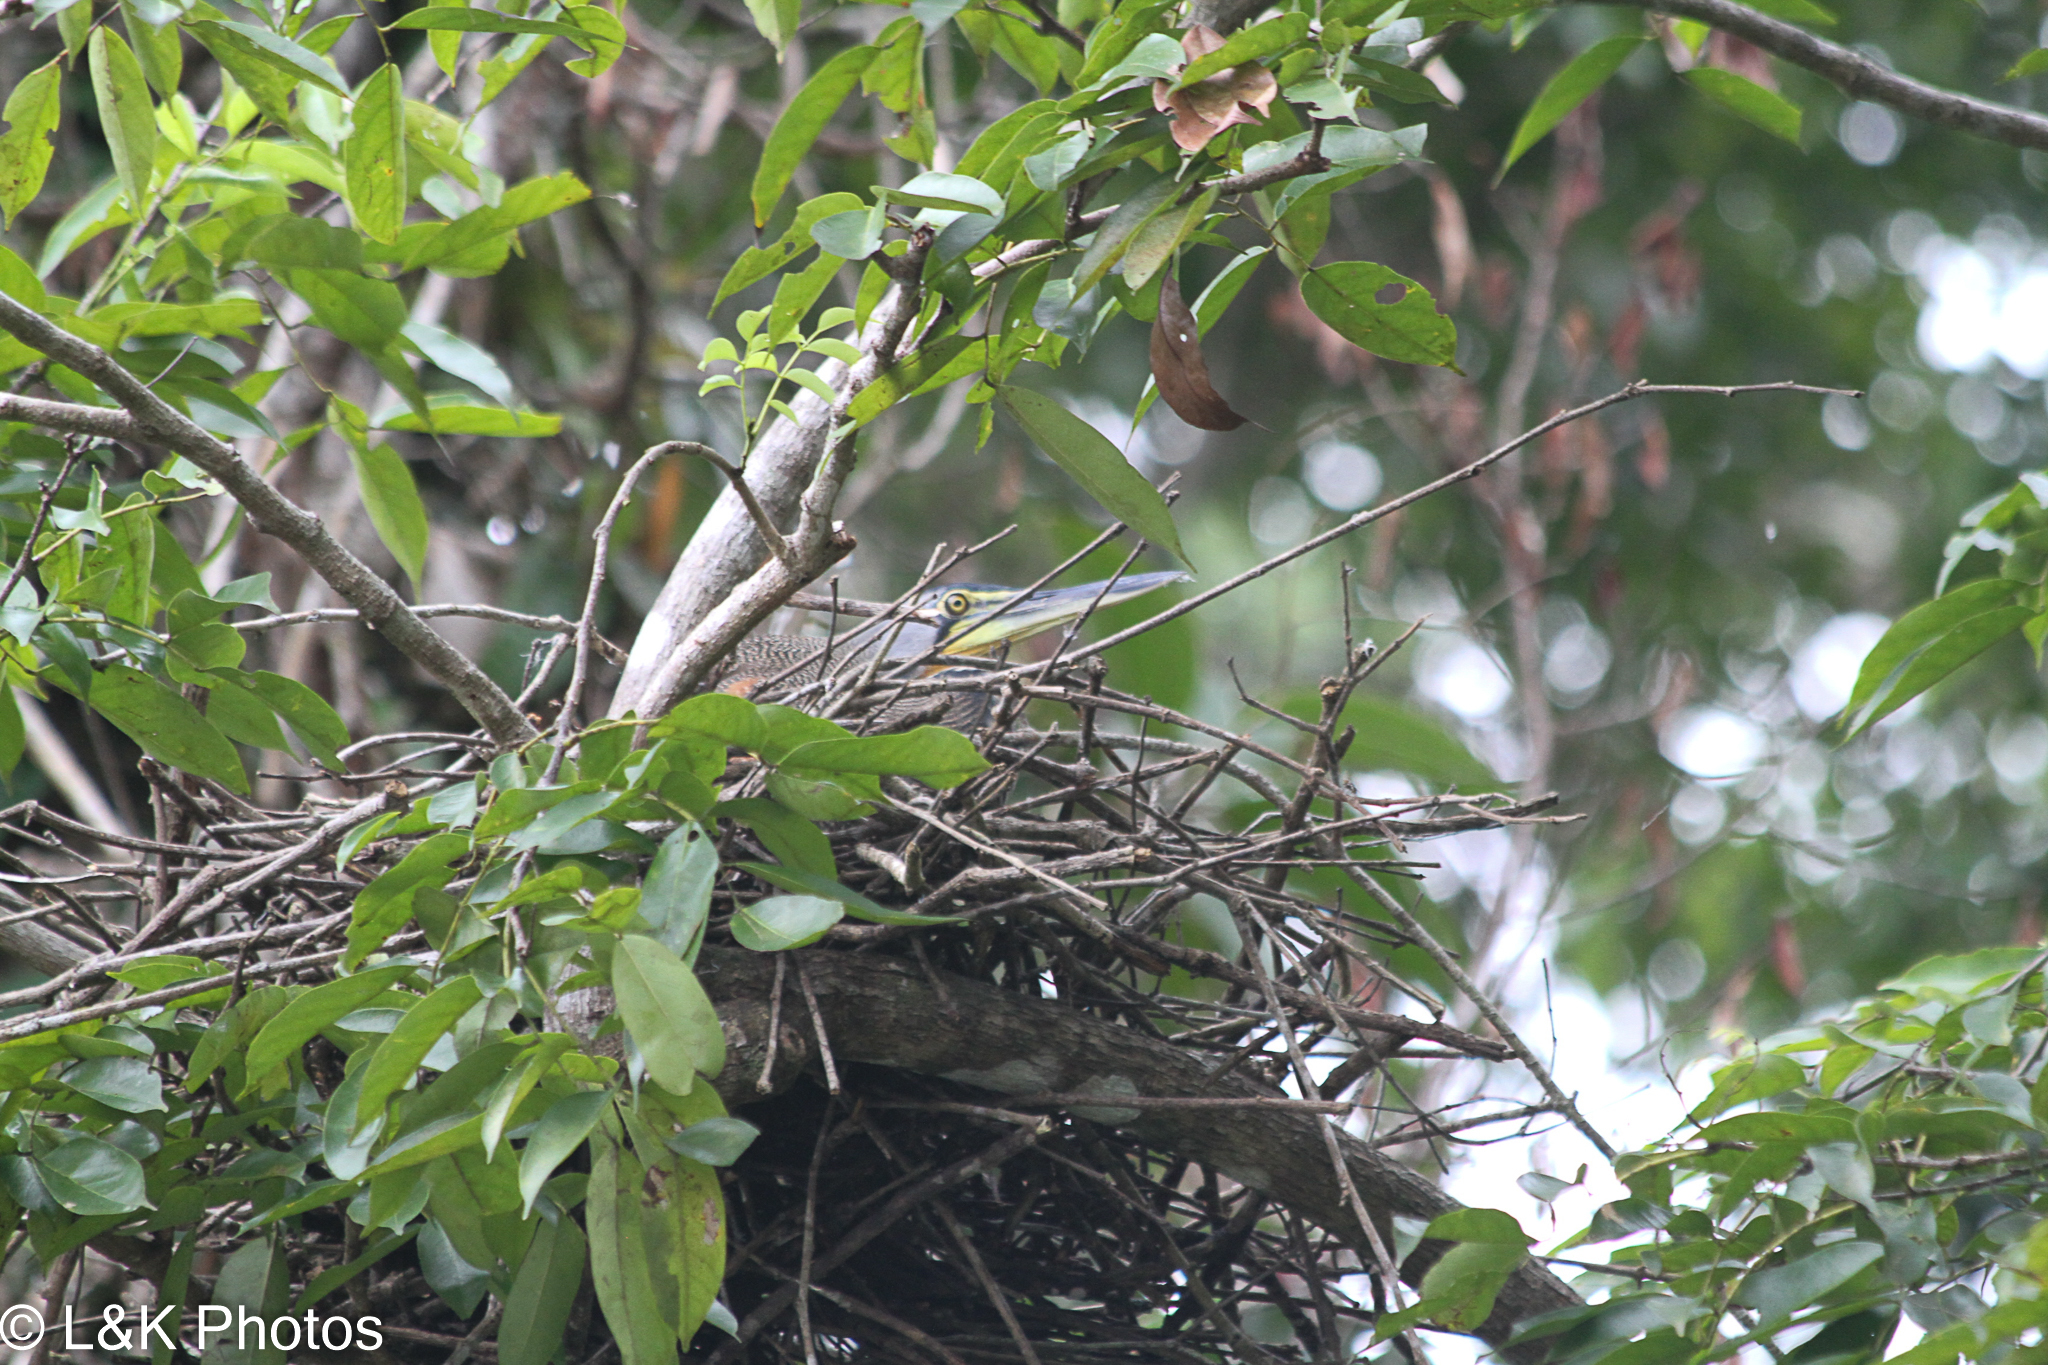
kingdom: Animalia
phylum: Chordata
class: Aves
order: Pelecaniformes
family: Ardeidae
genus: Tigrisoma
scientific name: Tigrisoma mexicanum
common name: Bare-throated tiger-heron
